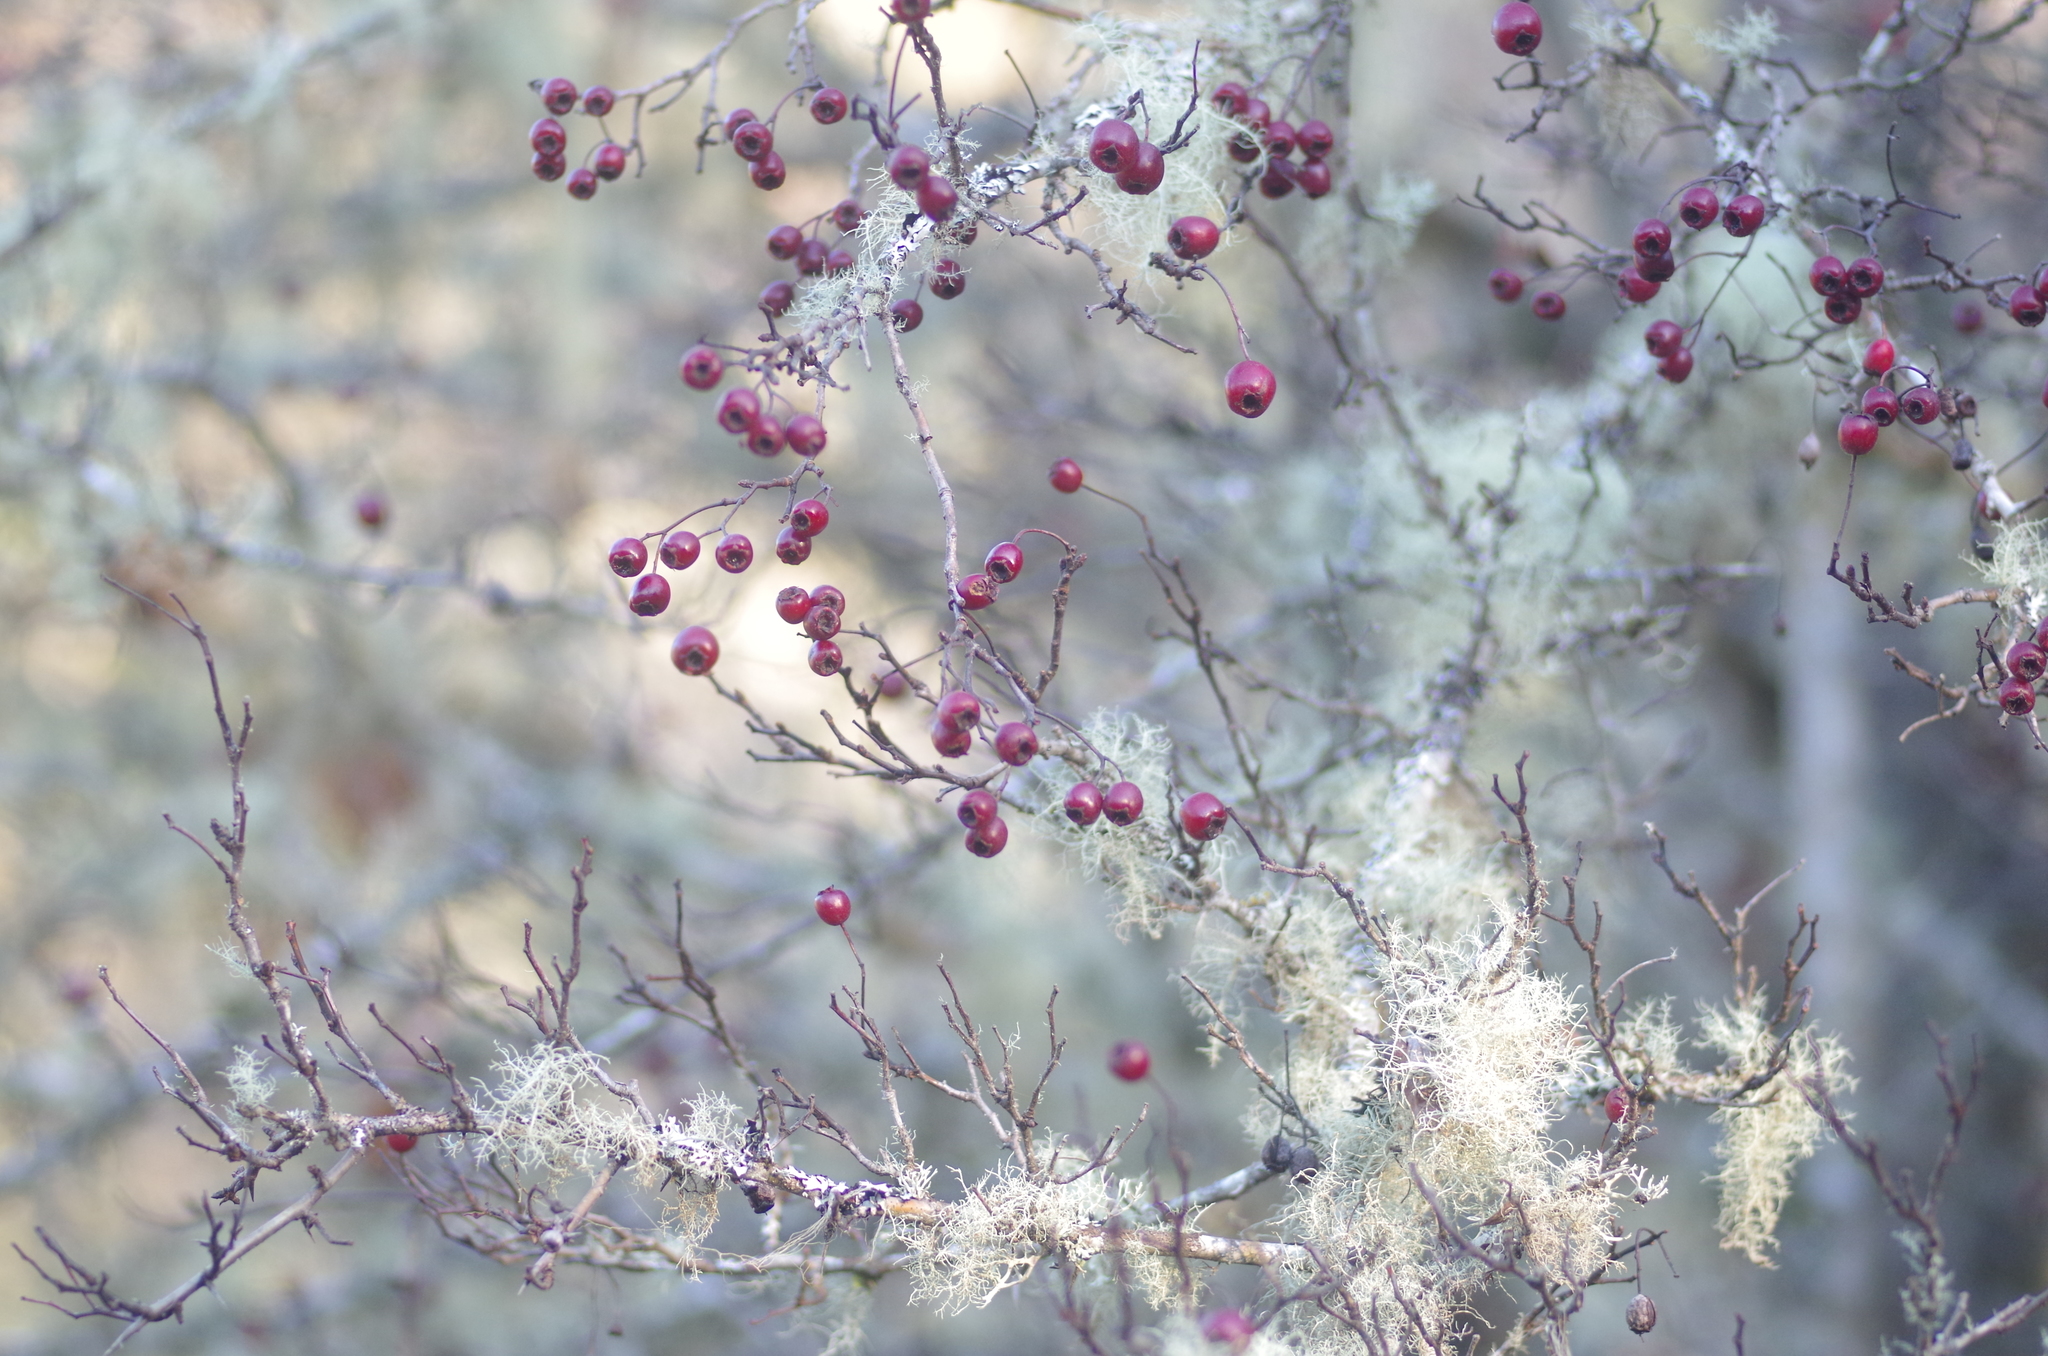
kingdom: Plantae
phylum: Tracheophyta
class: Magnoliopsida
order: Rosales
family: Rosaceae
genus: Crataegus
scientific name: Crataegus monogyna
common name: Hawthorn
